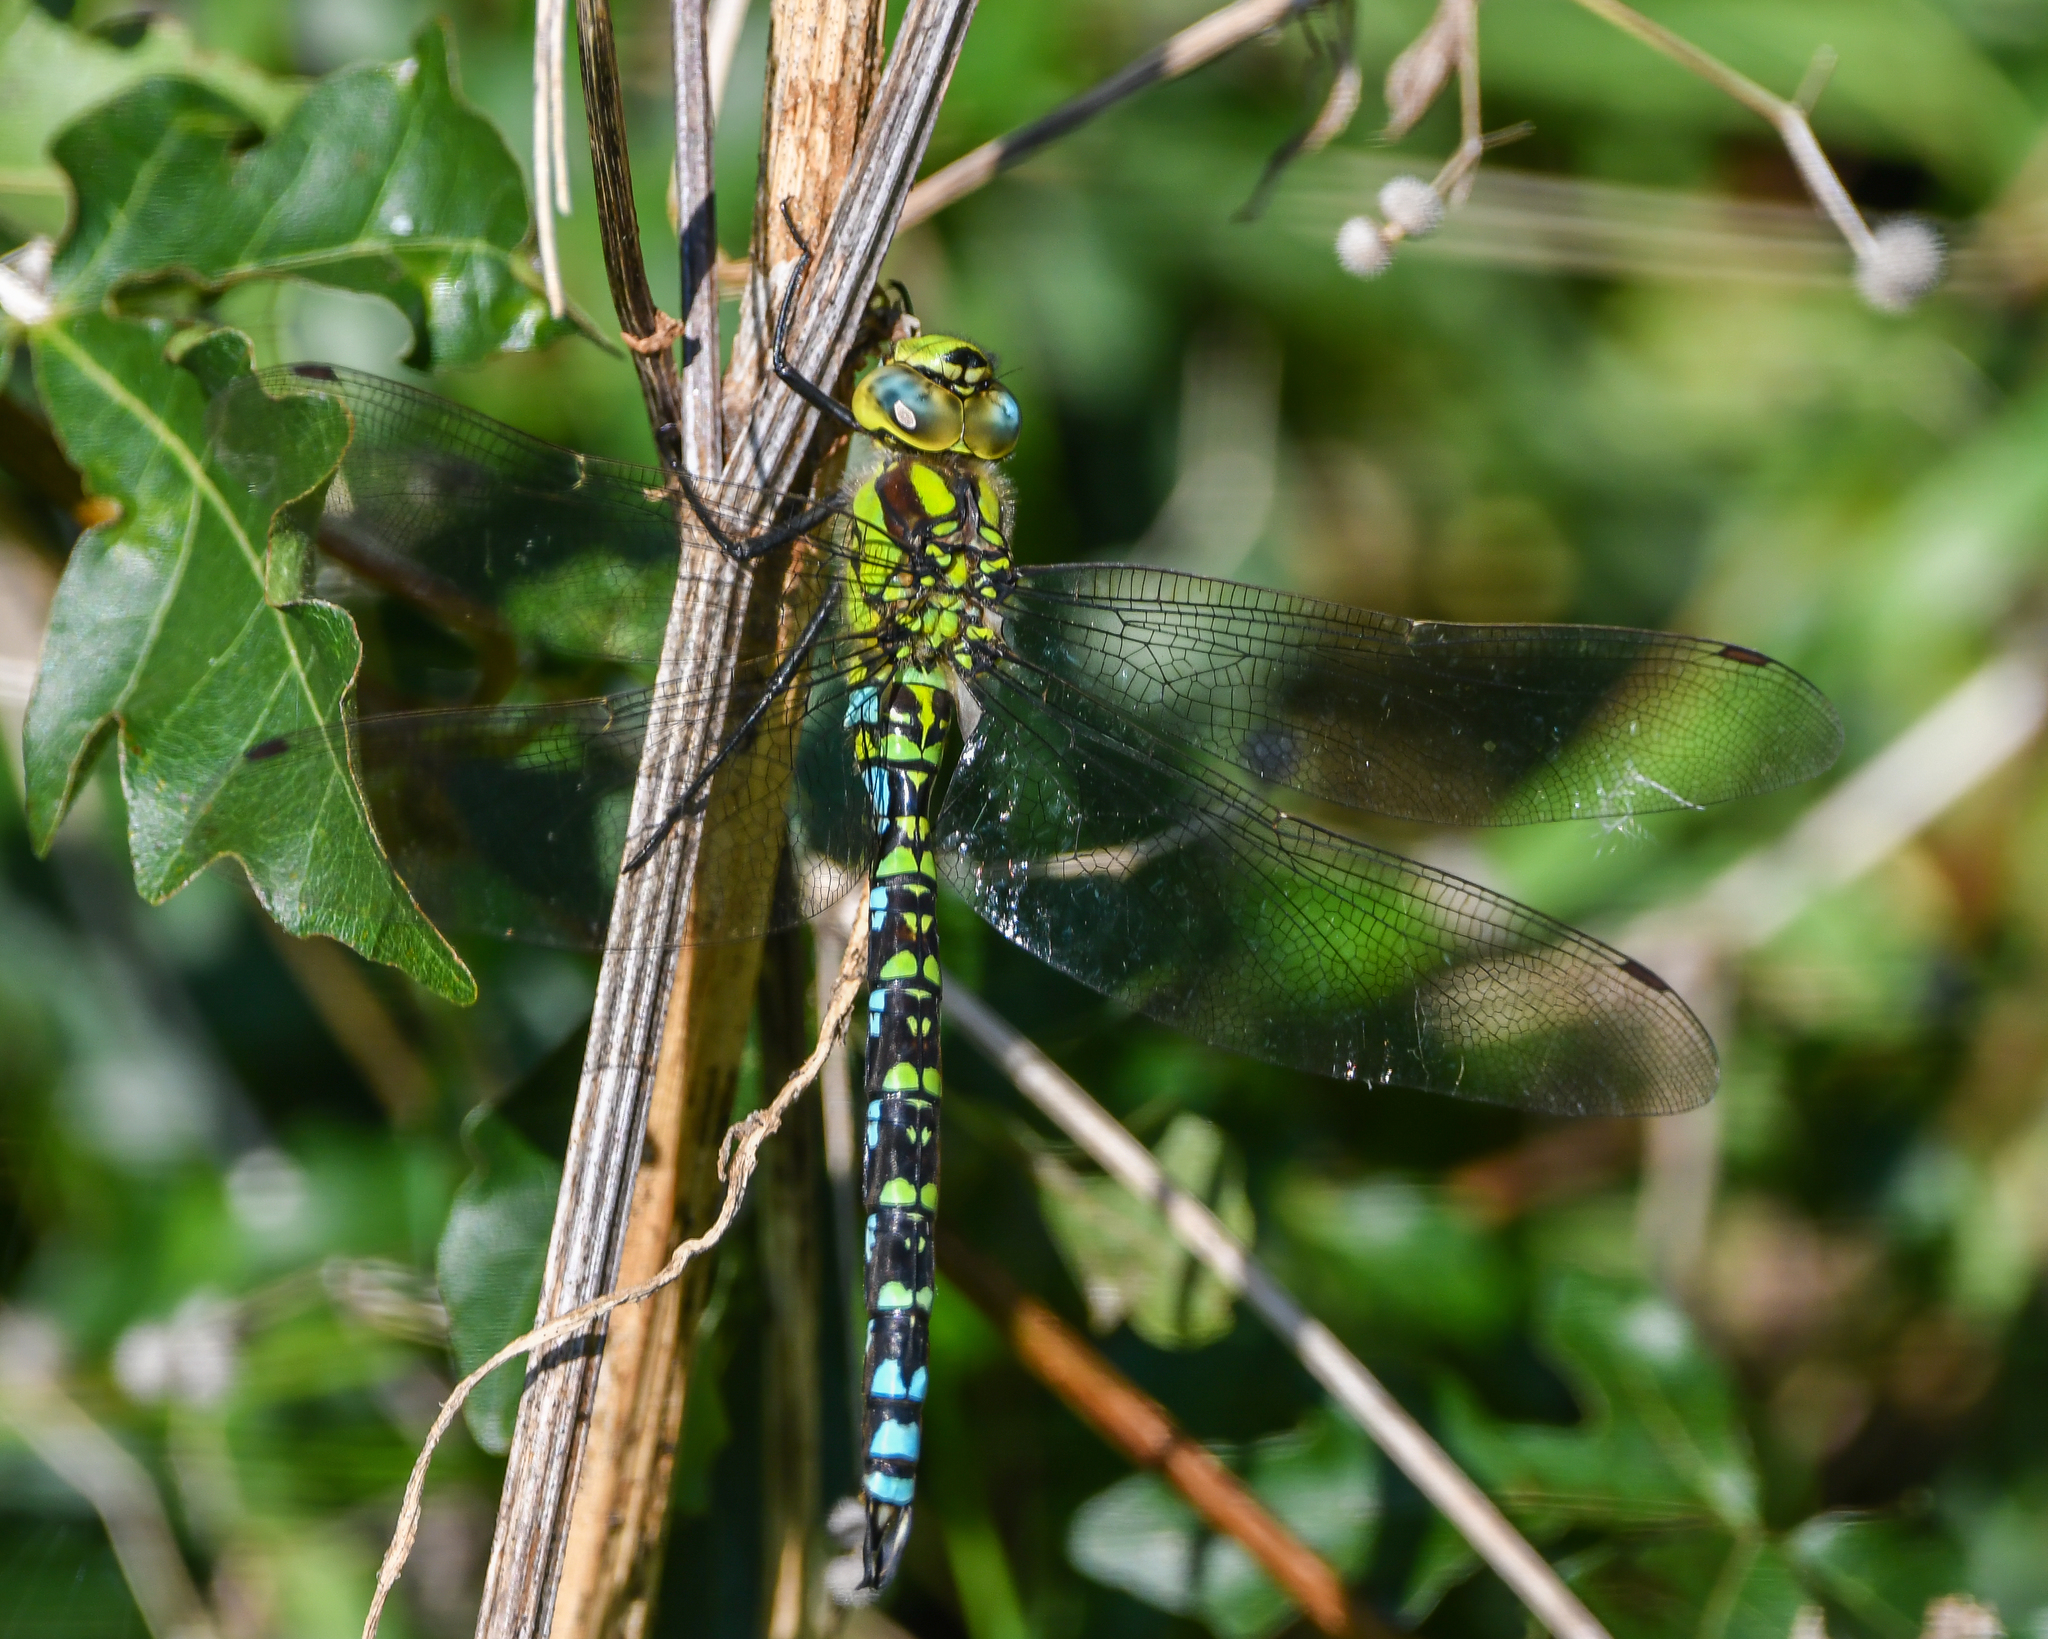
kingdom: Animalia
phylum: Arthropoda
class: Insecta
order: Odonata
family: Aeshnidae
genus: Aeshna
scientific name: Aeshna cyanea
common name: Southern hawker
